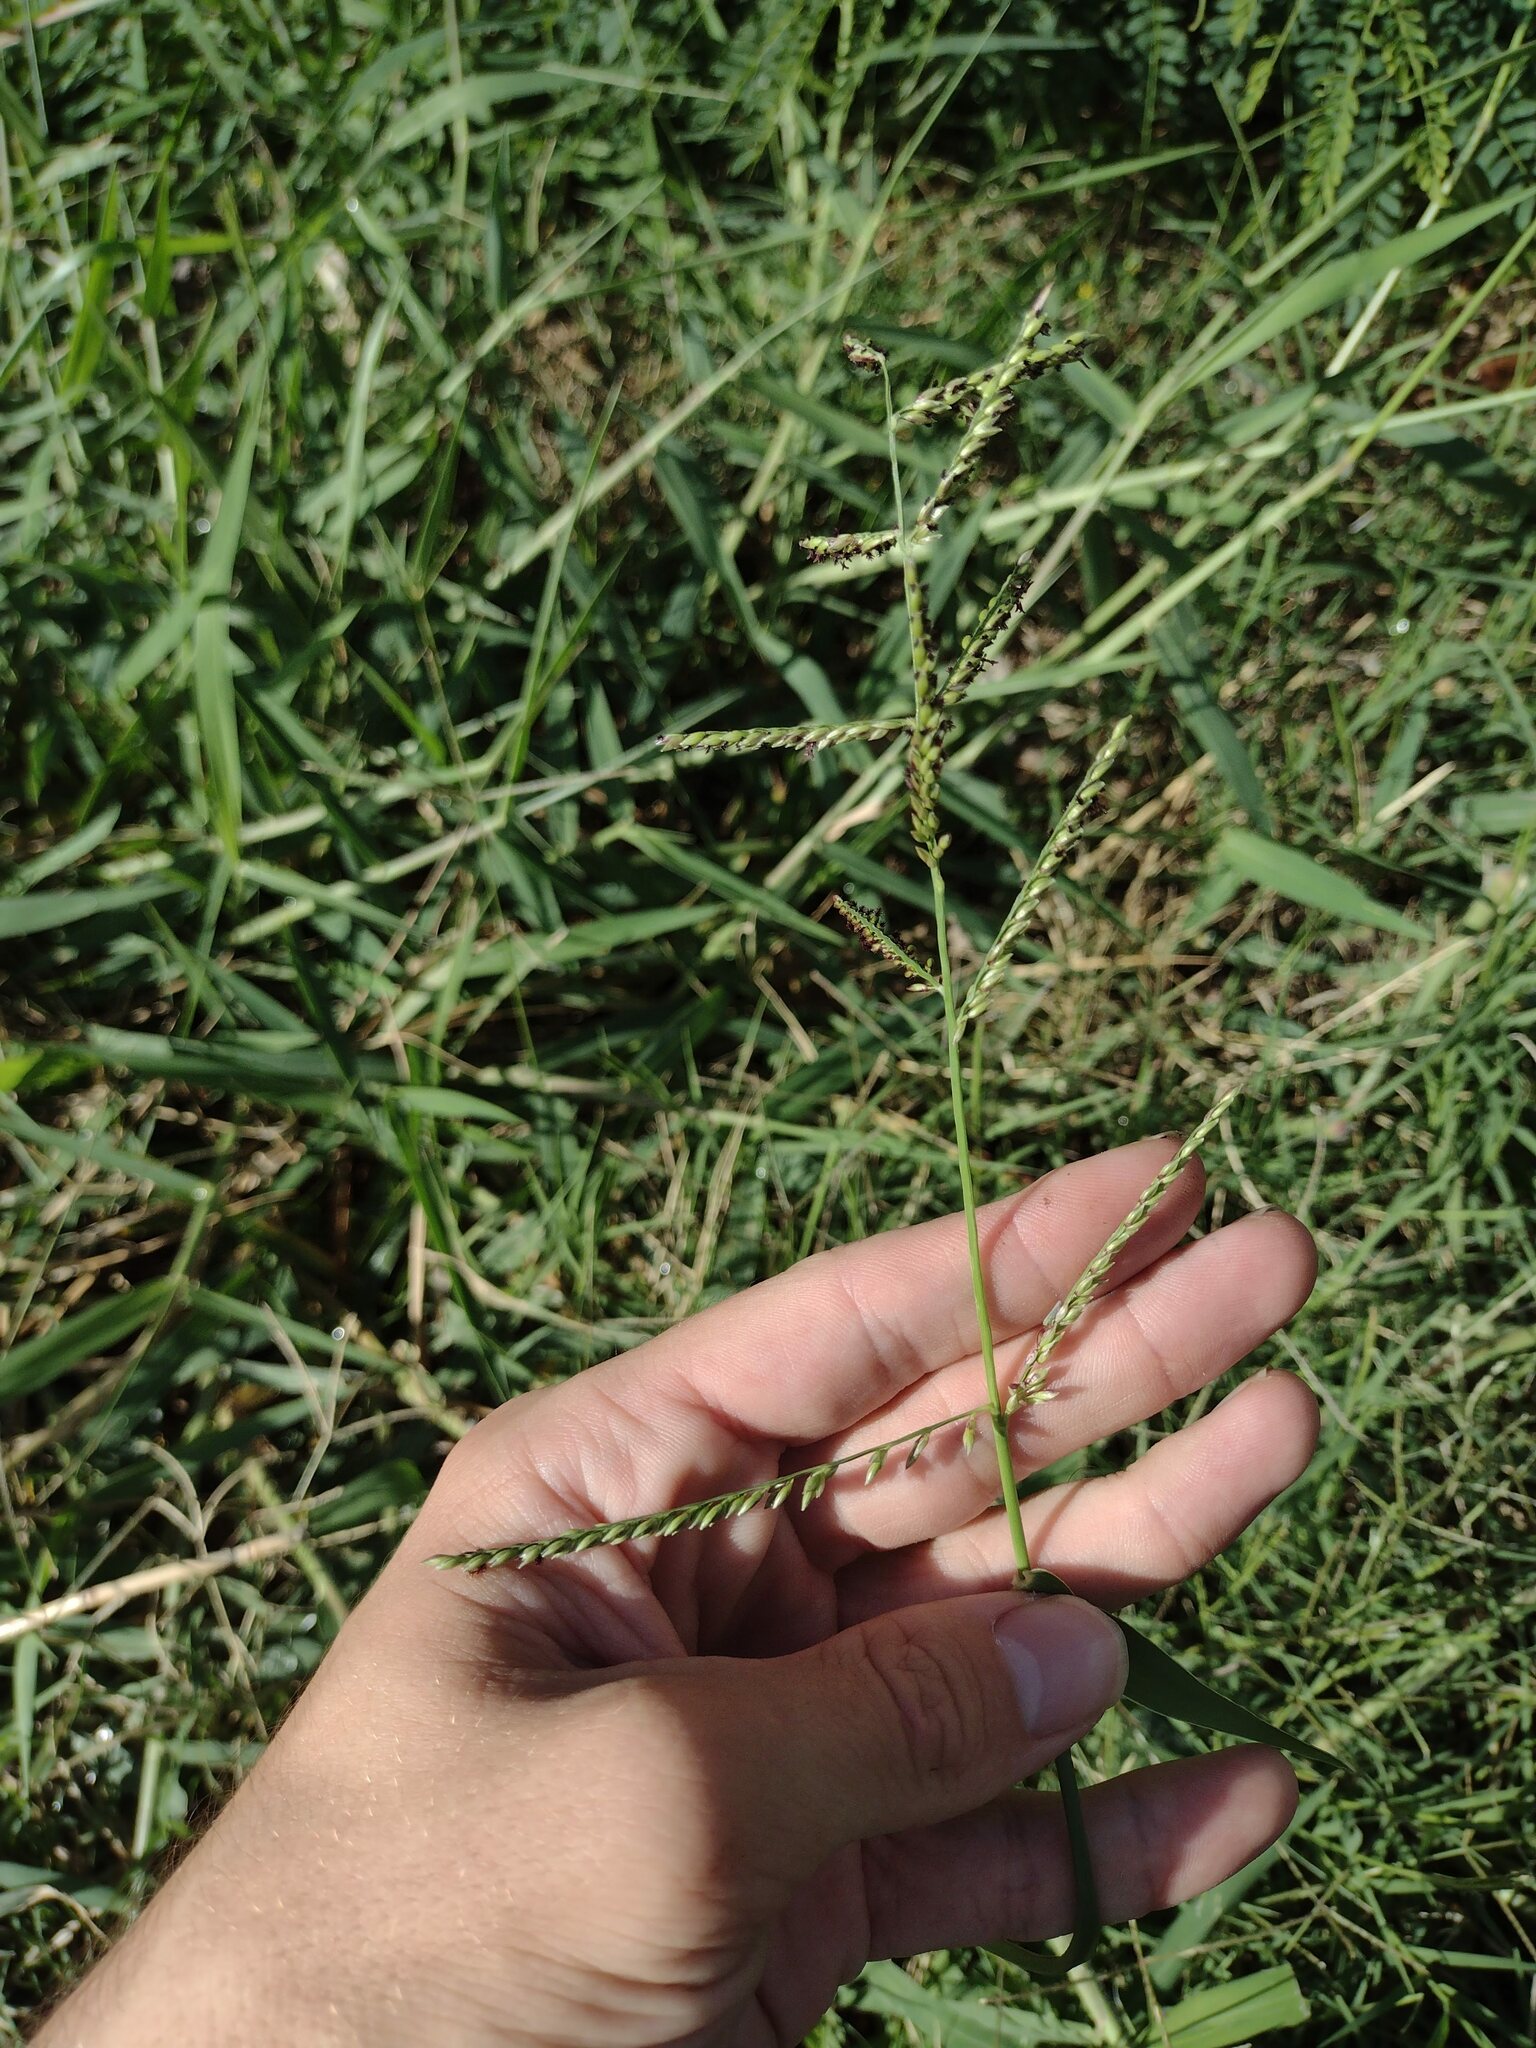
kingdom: Plantae
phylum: Tracheophyta
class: Liliopsida
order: Poales
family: Poaceae
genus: Urochloa
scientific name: Urochloa mutica
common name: Para grass
